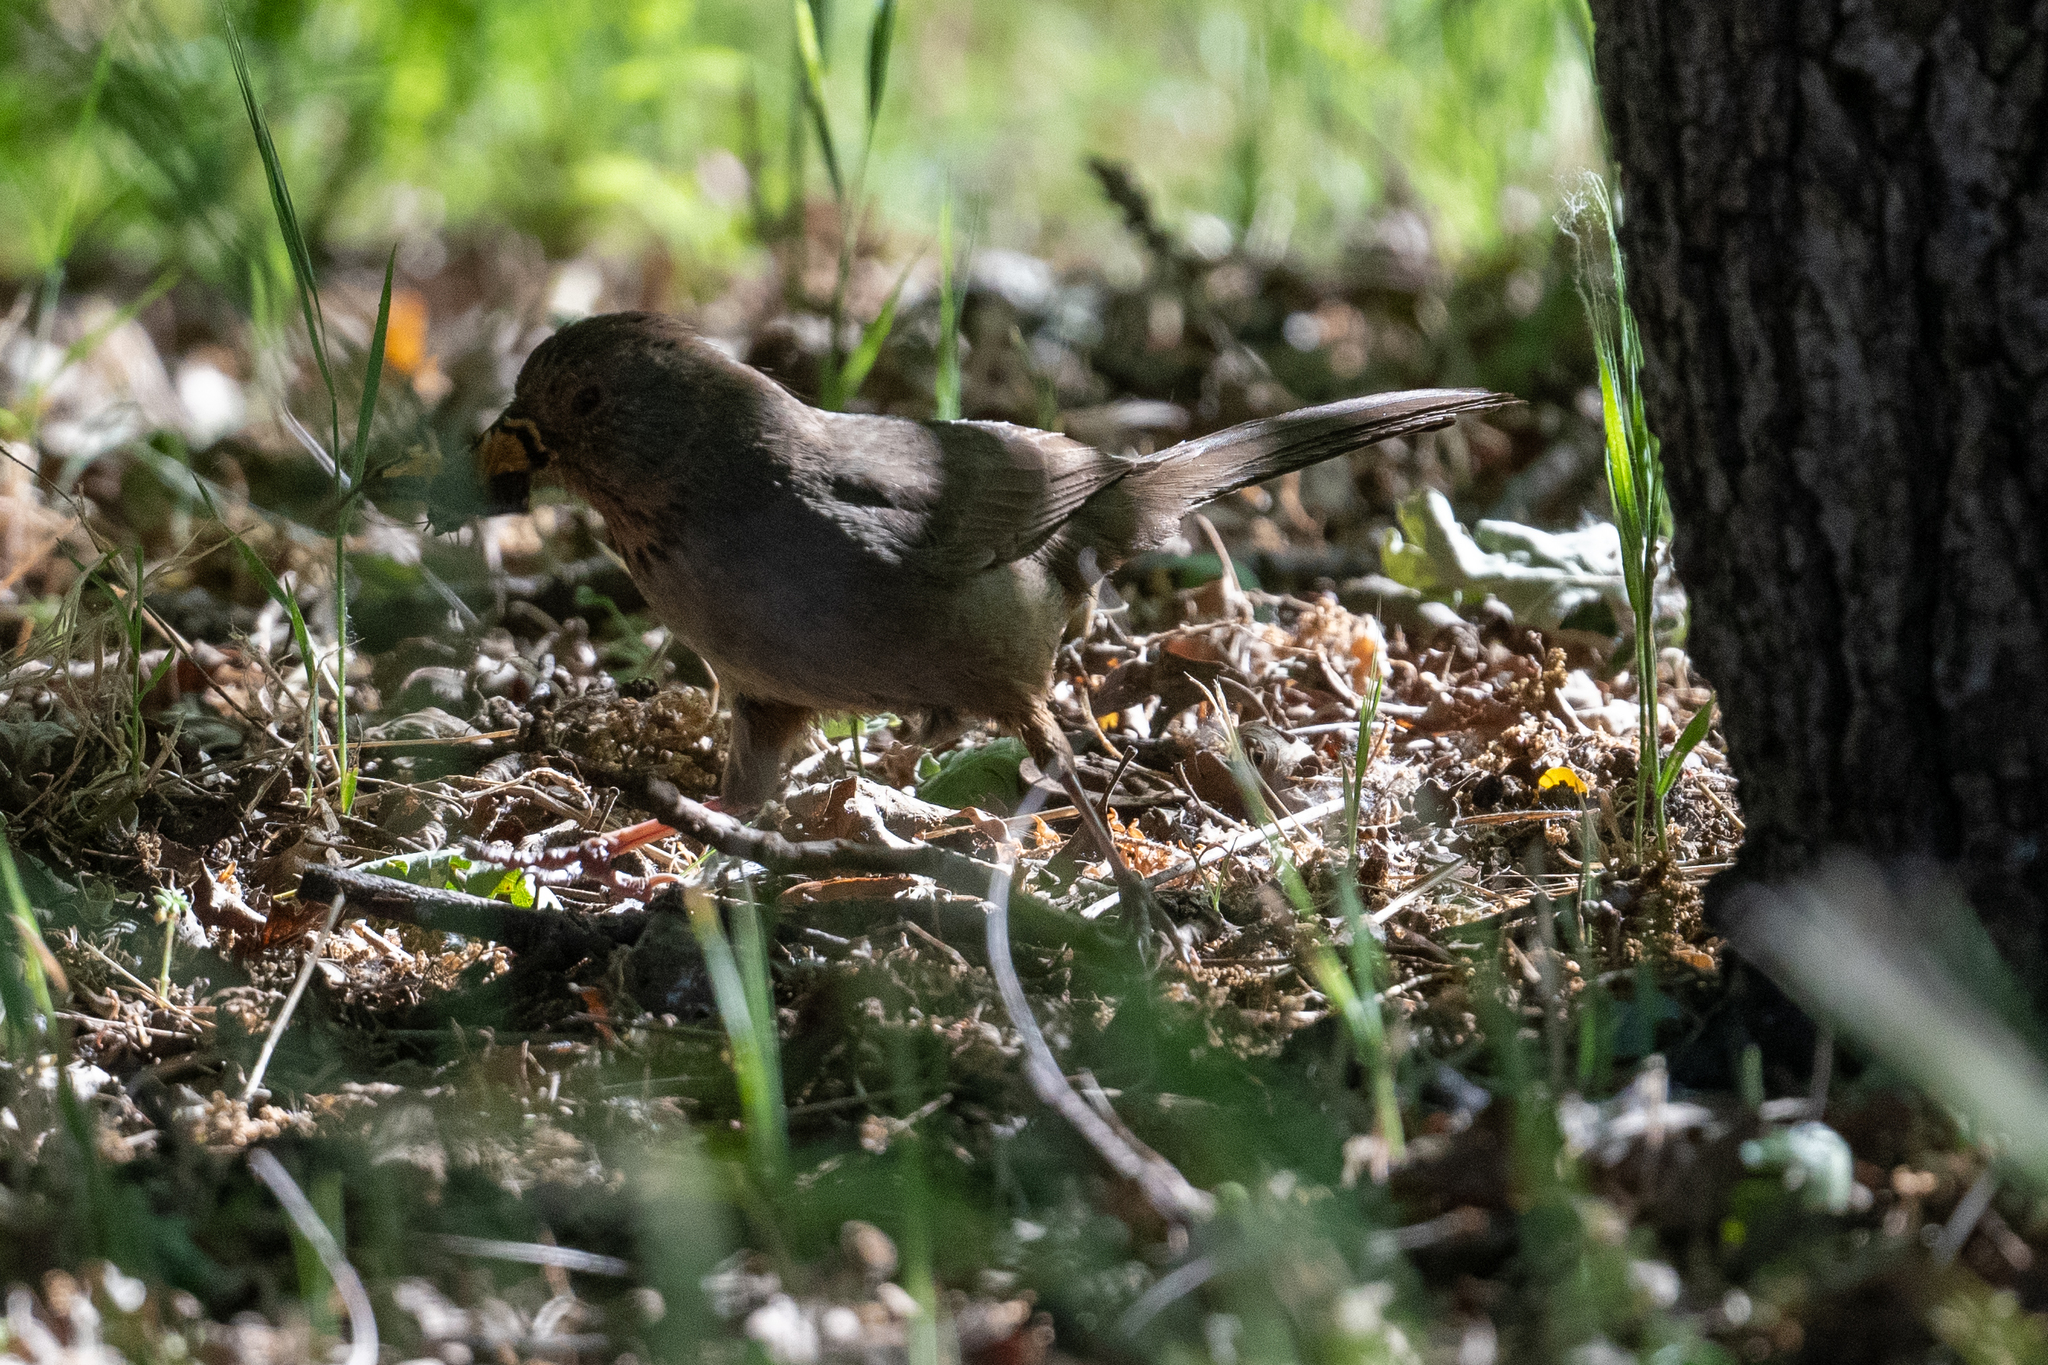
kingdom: Animalia
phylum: Chordata
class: Aves
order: Passeriformes
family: Passerellidae
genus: Melozone
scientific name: Melozone crissalis
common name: California towhee
